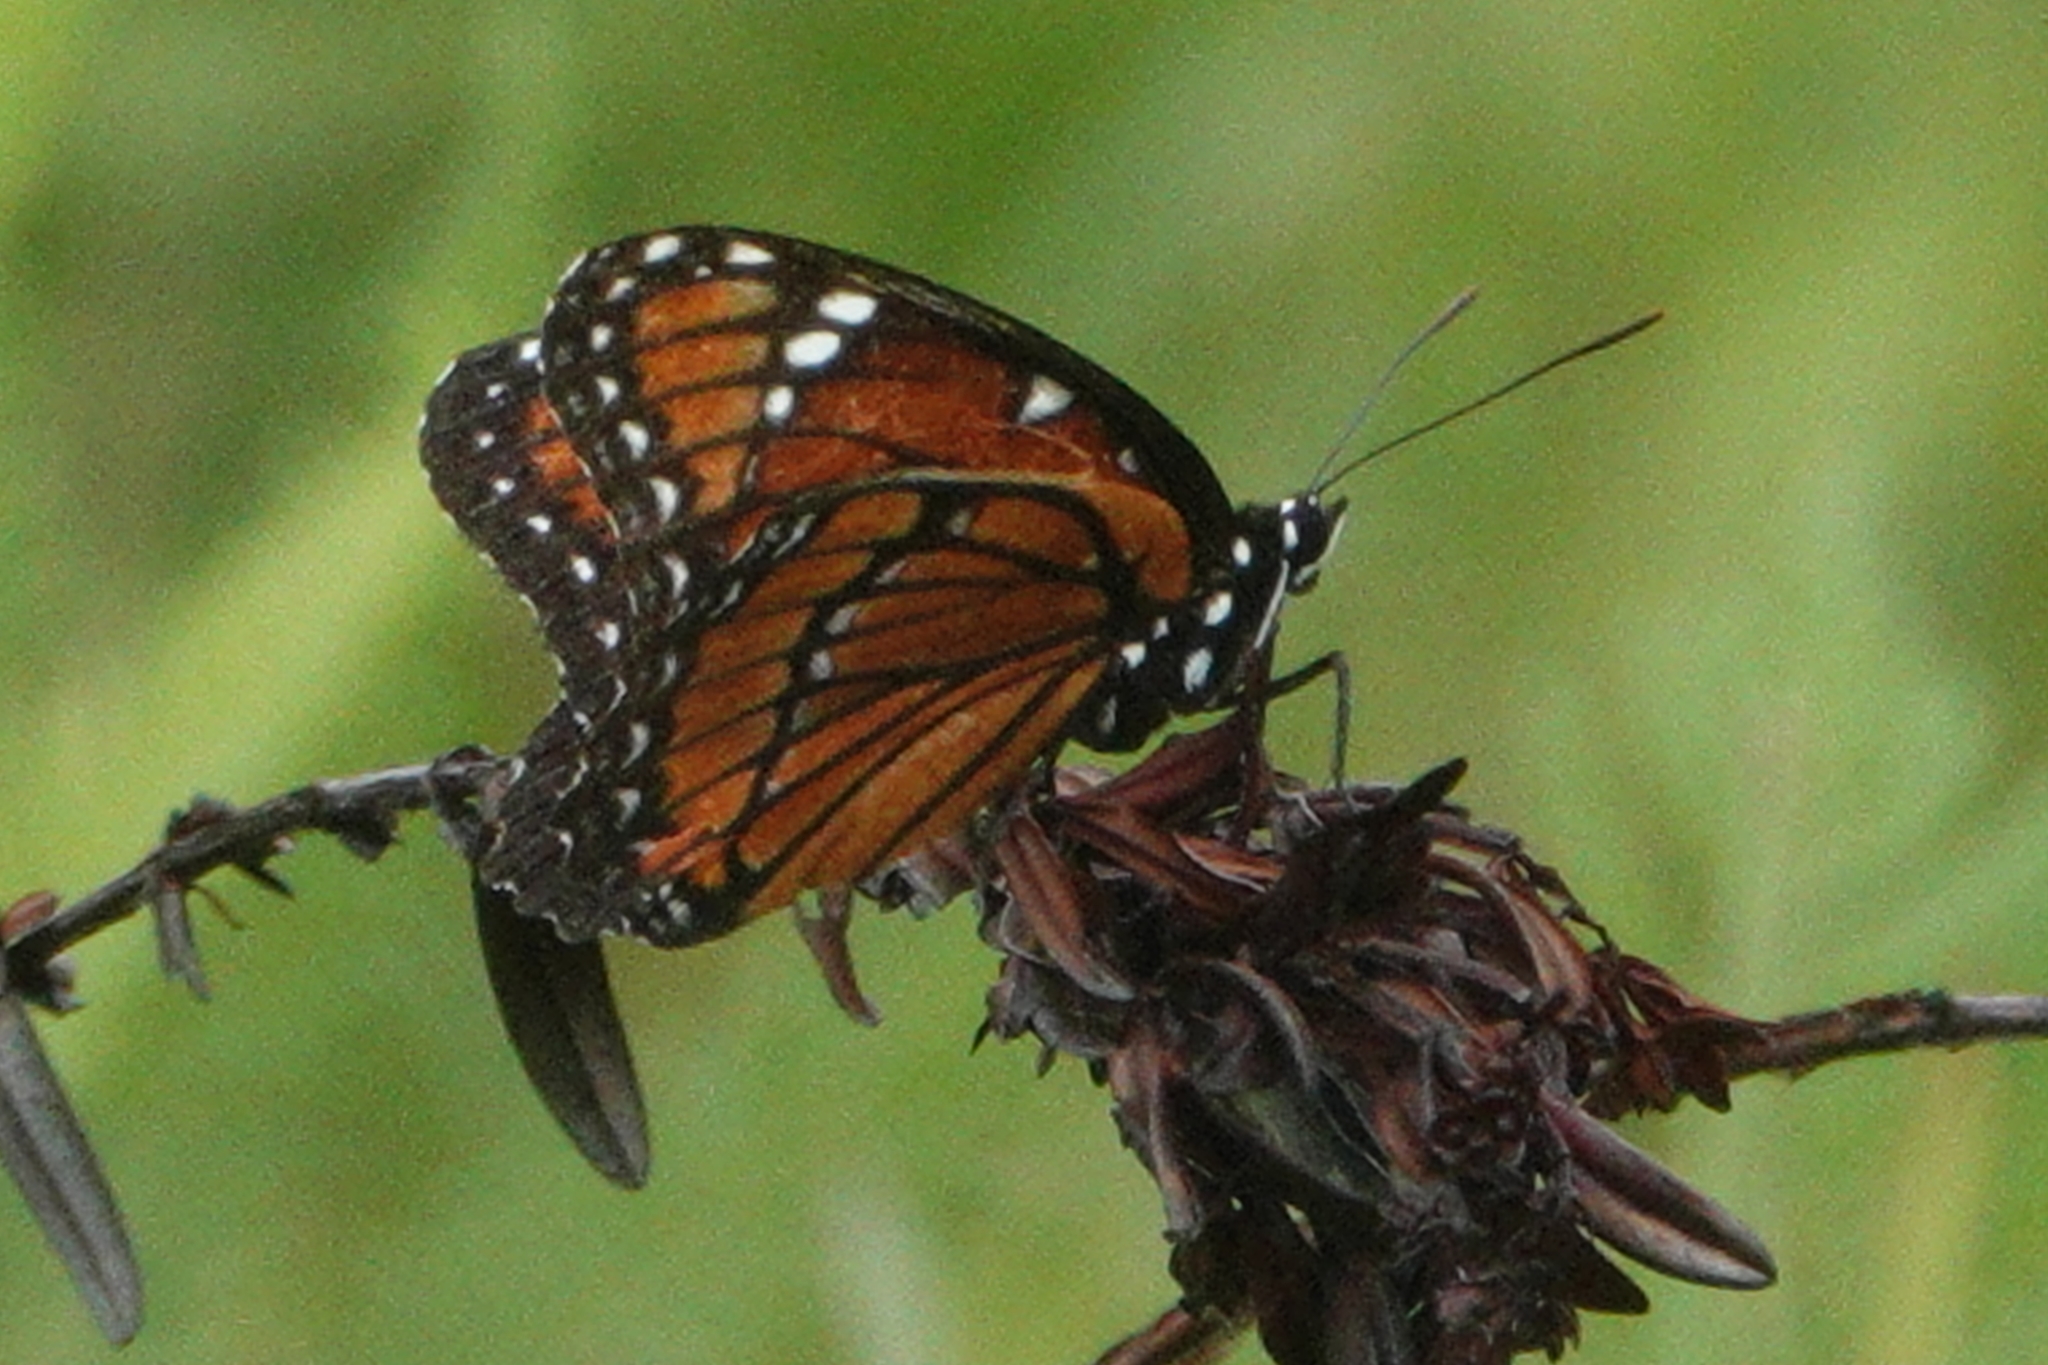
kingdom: Animalia
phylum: Arthropoda
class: Insecta
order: Lepidoptera
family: Nymphalidae
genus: Limenitis
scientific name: Limenitis archippus
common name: Viceroy
